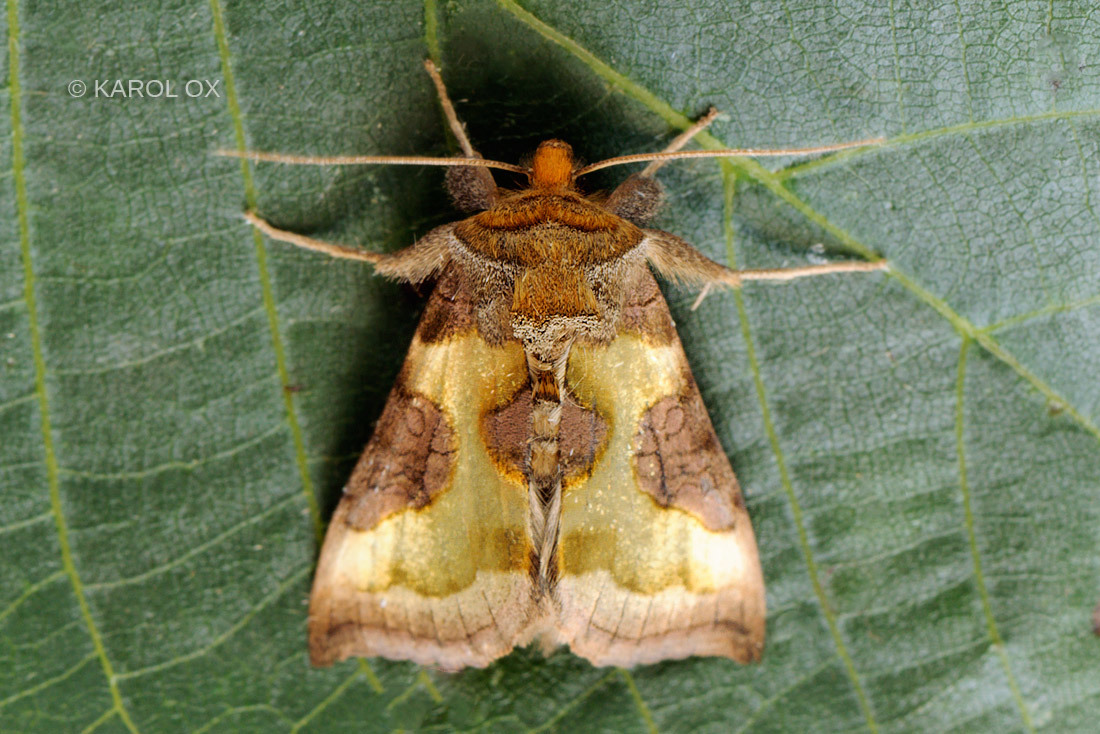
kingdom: Animalia
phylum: Arthropoda
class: Insecta
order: Lepidoptera
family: Noctuidae
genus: Diachrysia
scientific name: Diachrysia stenochrysis
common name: Cryptic burnished brass
